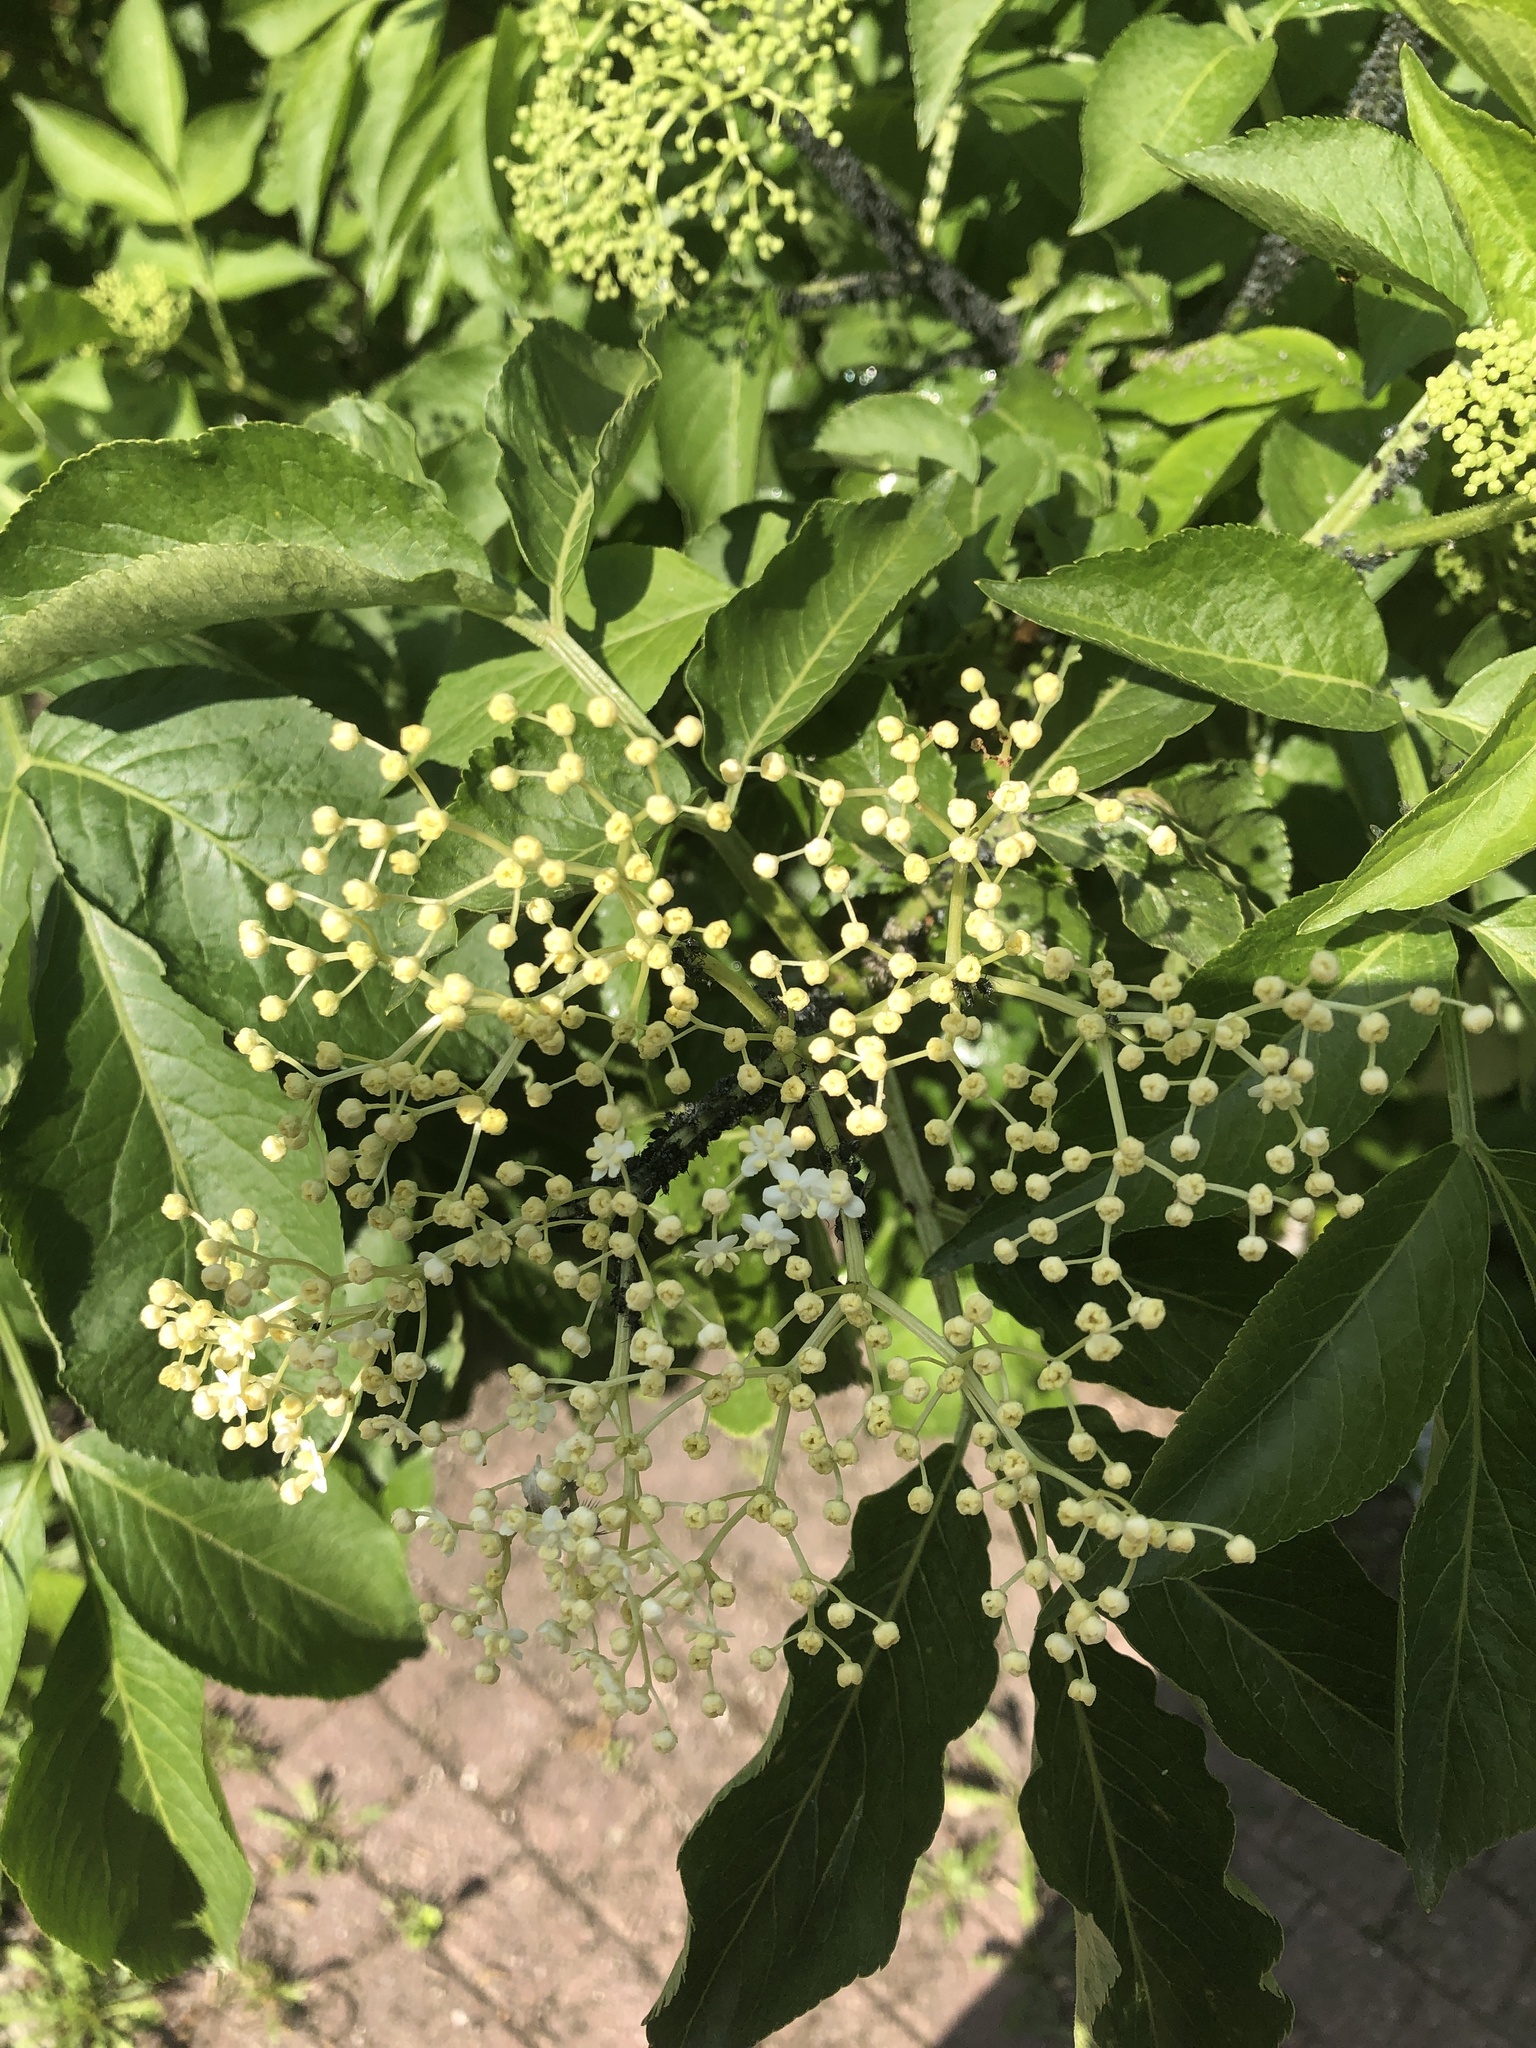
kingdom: Plantae
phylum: Tracheophyta
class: Magnoliopsida
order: Dipsacales
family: Viburnaceae
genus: Sambucus
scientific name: Sambucus nigra
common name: Elder
